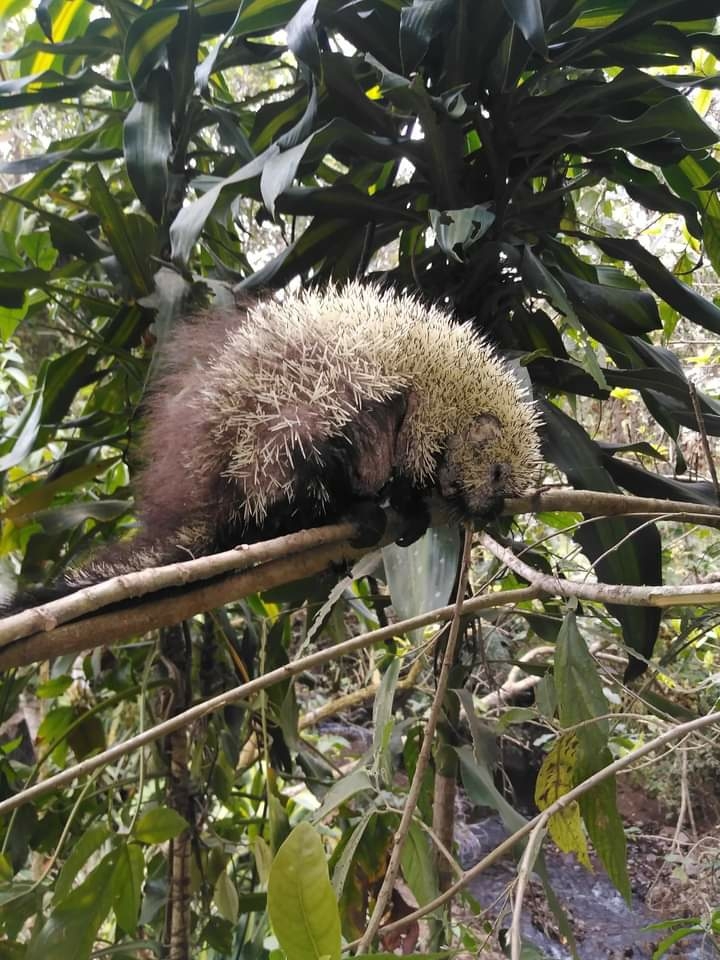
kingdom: Animalia
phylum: Chordata
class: Mammalia
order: Rodentia
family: Erethizontidae
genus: Sphiggurus
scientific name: Sphiggurus mexicanus
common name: Mexican hairy dwarf porcupine
